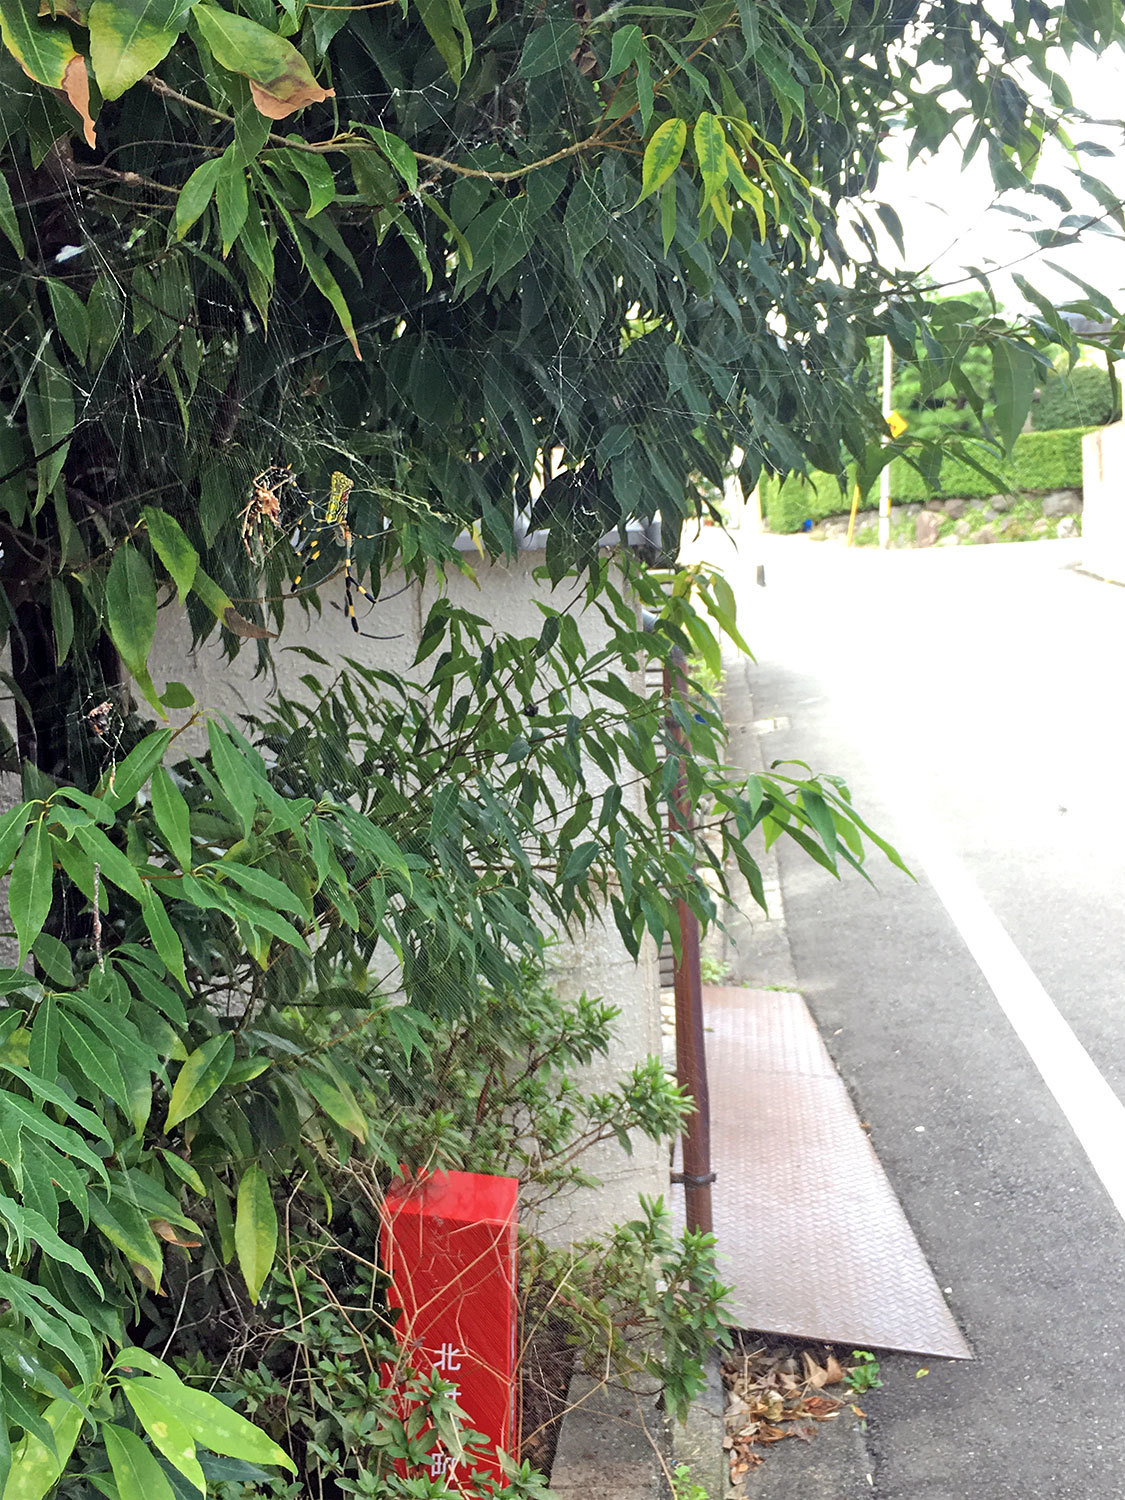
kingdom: Animalia
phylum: Arthropoda
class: Arachnida
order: Araneae
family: Araneidae
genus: Trichonephila
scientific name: Trichonephila clavata
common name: Jorō spider
